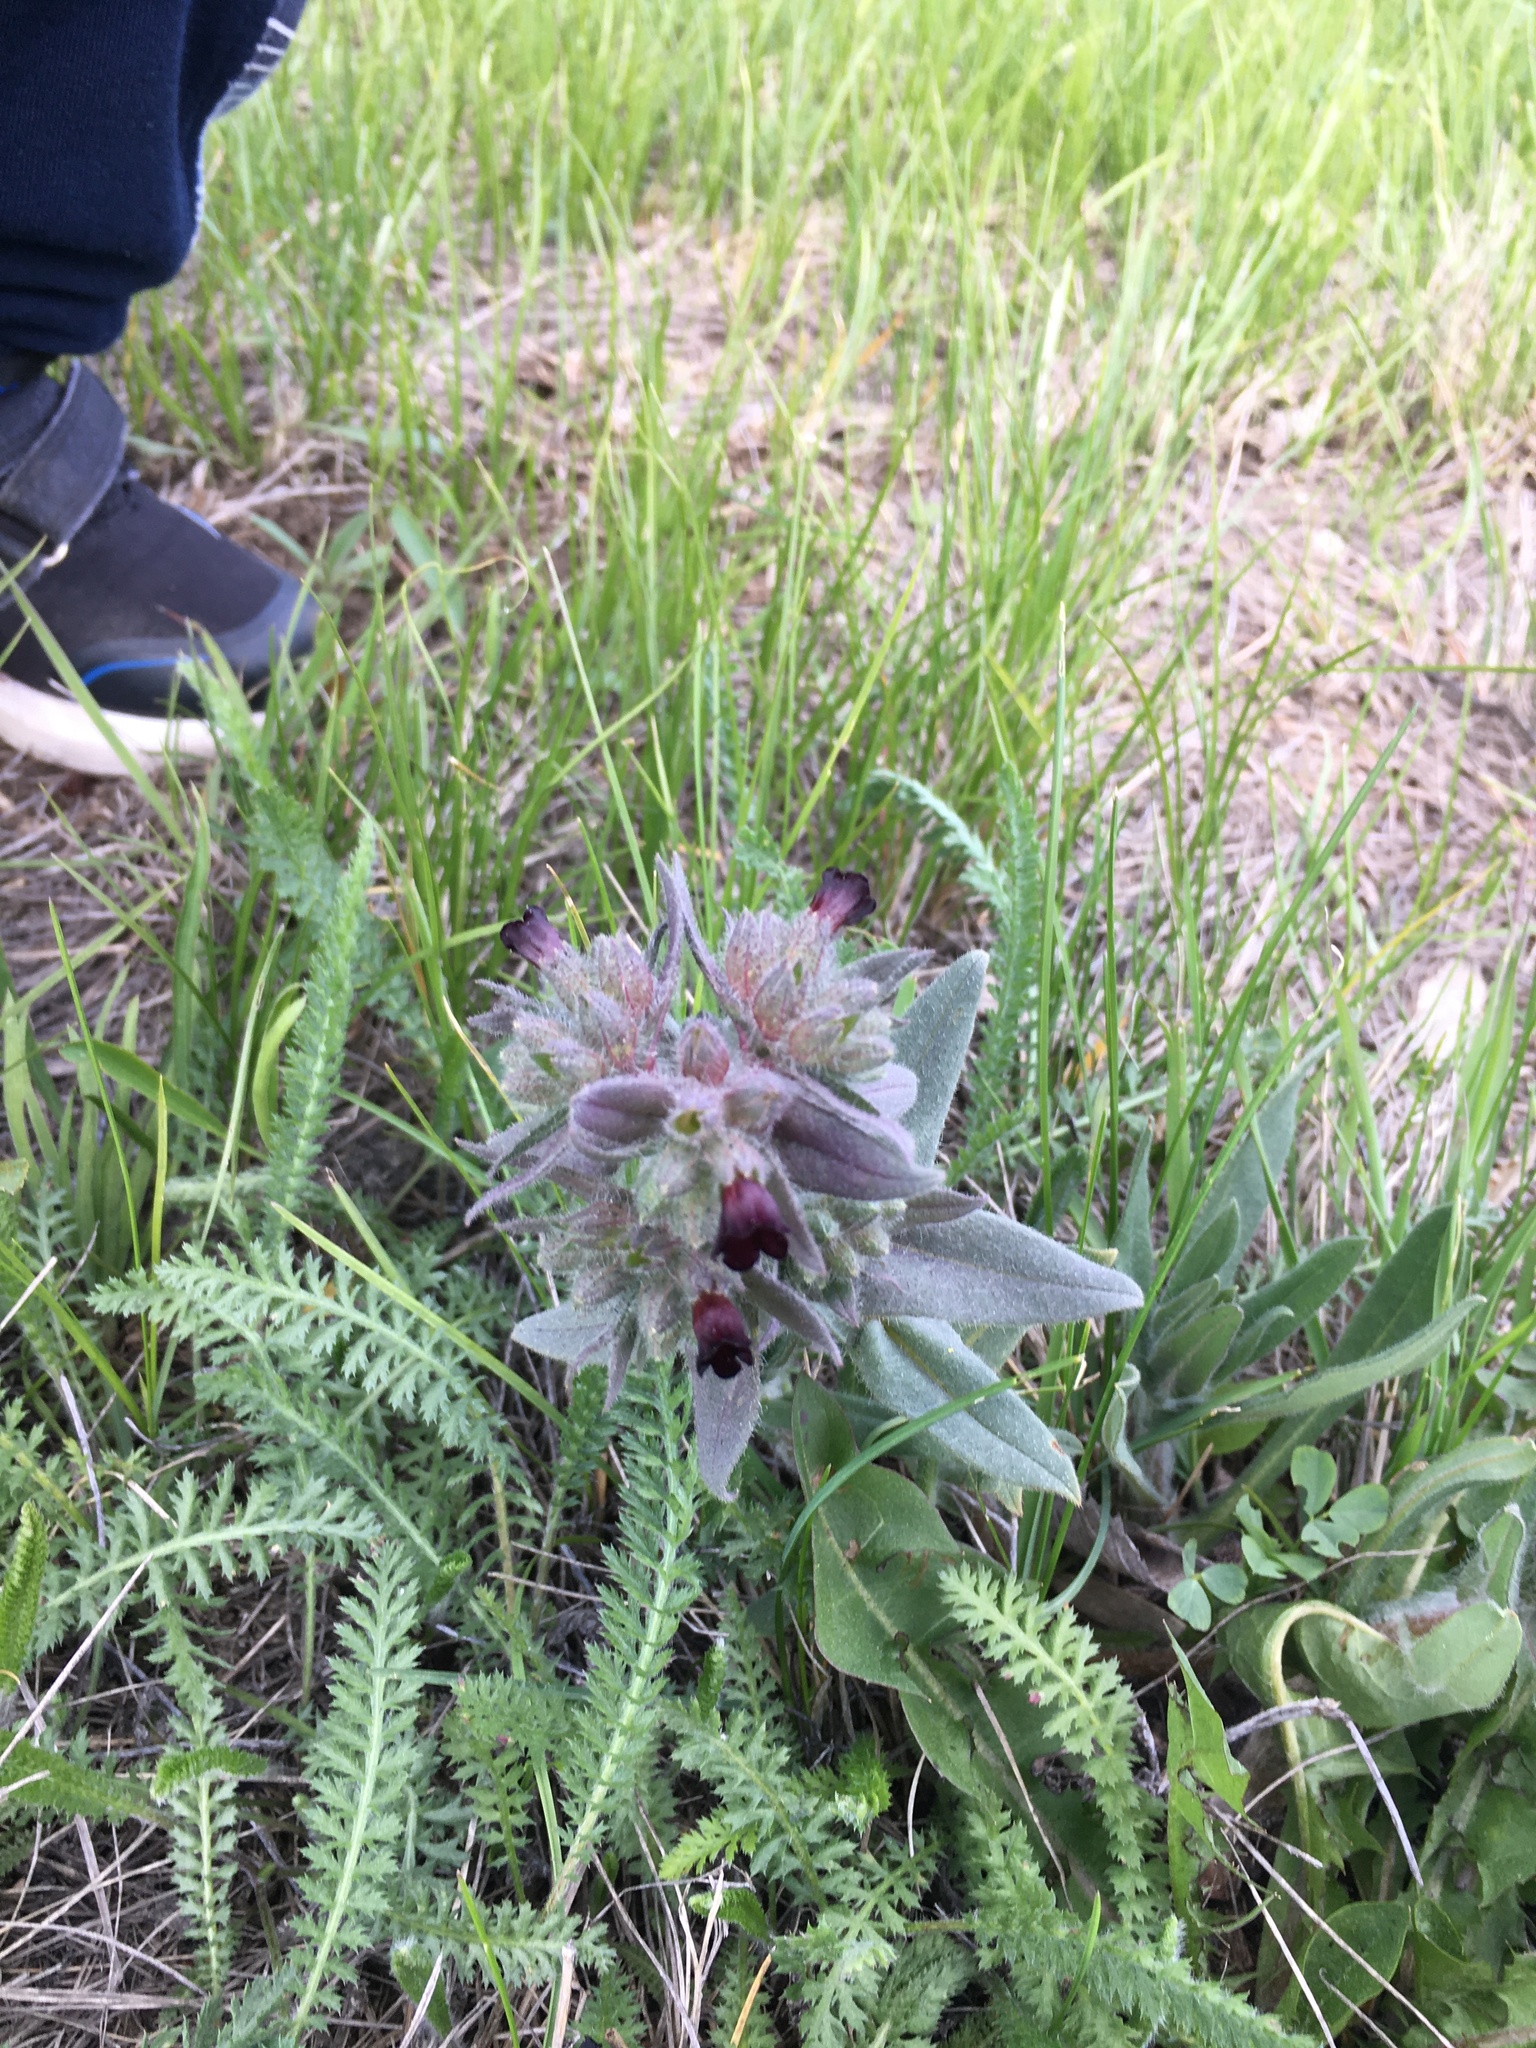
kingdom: Plantae
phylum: Tracheophyta
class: Magnoliopsida
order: Boraginales
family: Boraginaceae
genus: Nonea
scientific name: Nonea pulla
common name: Brown nonea
